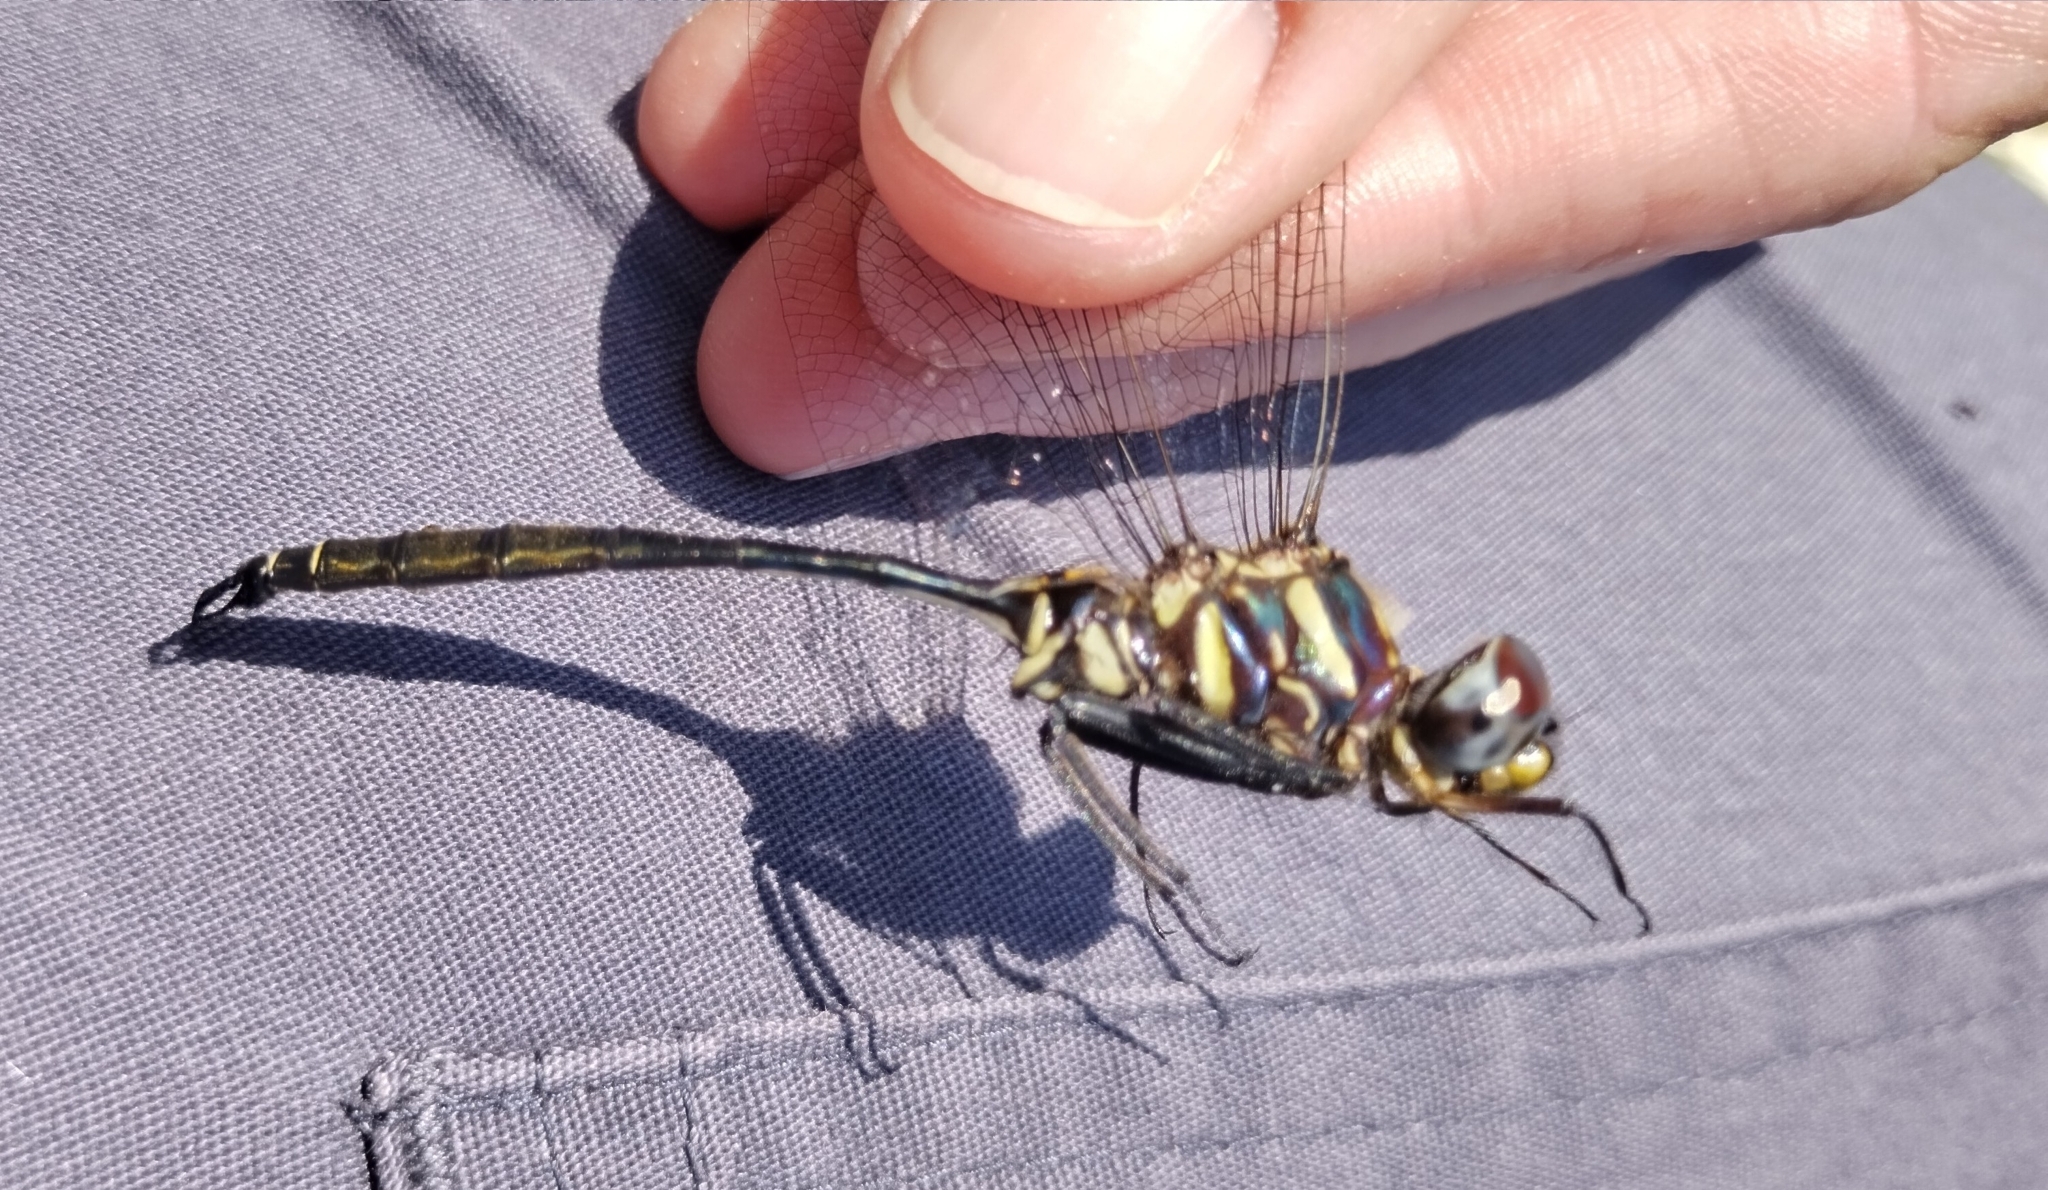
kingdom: Animalia
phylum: Arthropoda
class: Insecta
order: Odonata
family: Corduliidae
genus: Somatochlora
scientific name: Somatochlora provocans
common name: Treetop emerald
